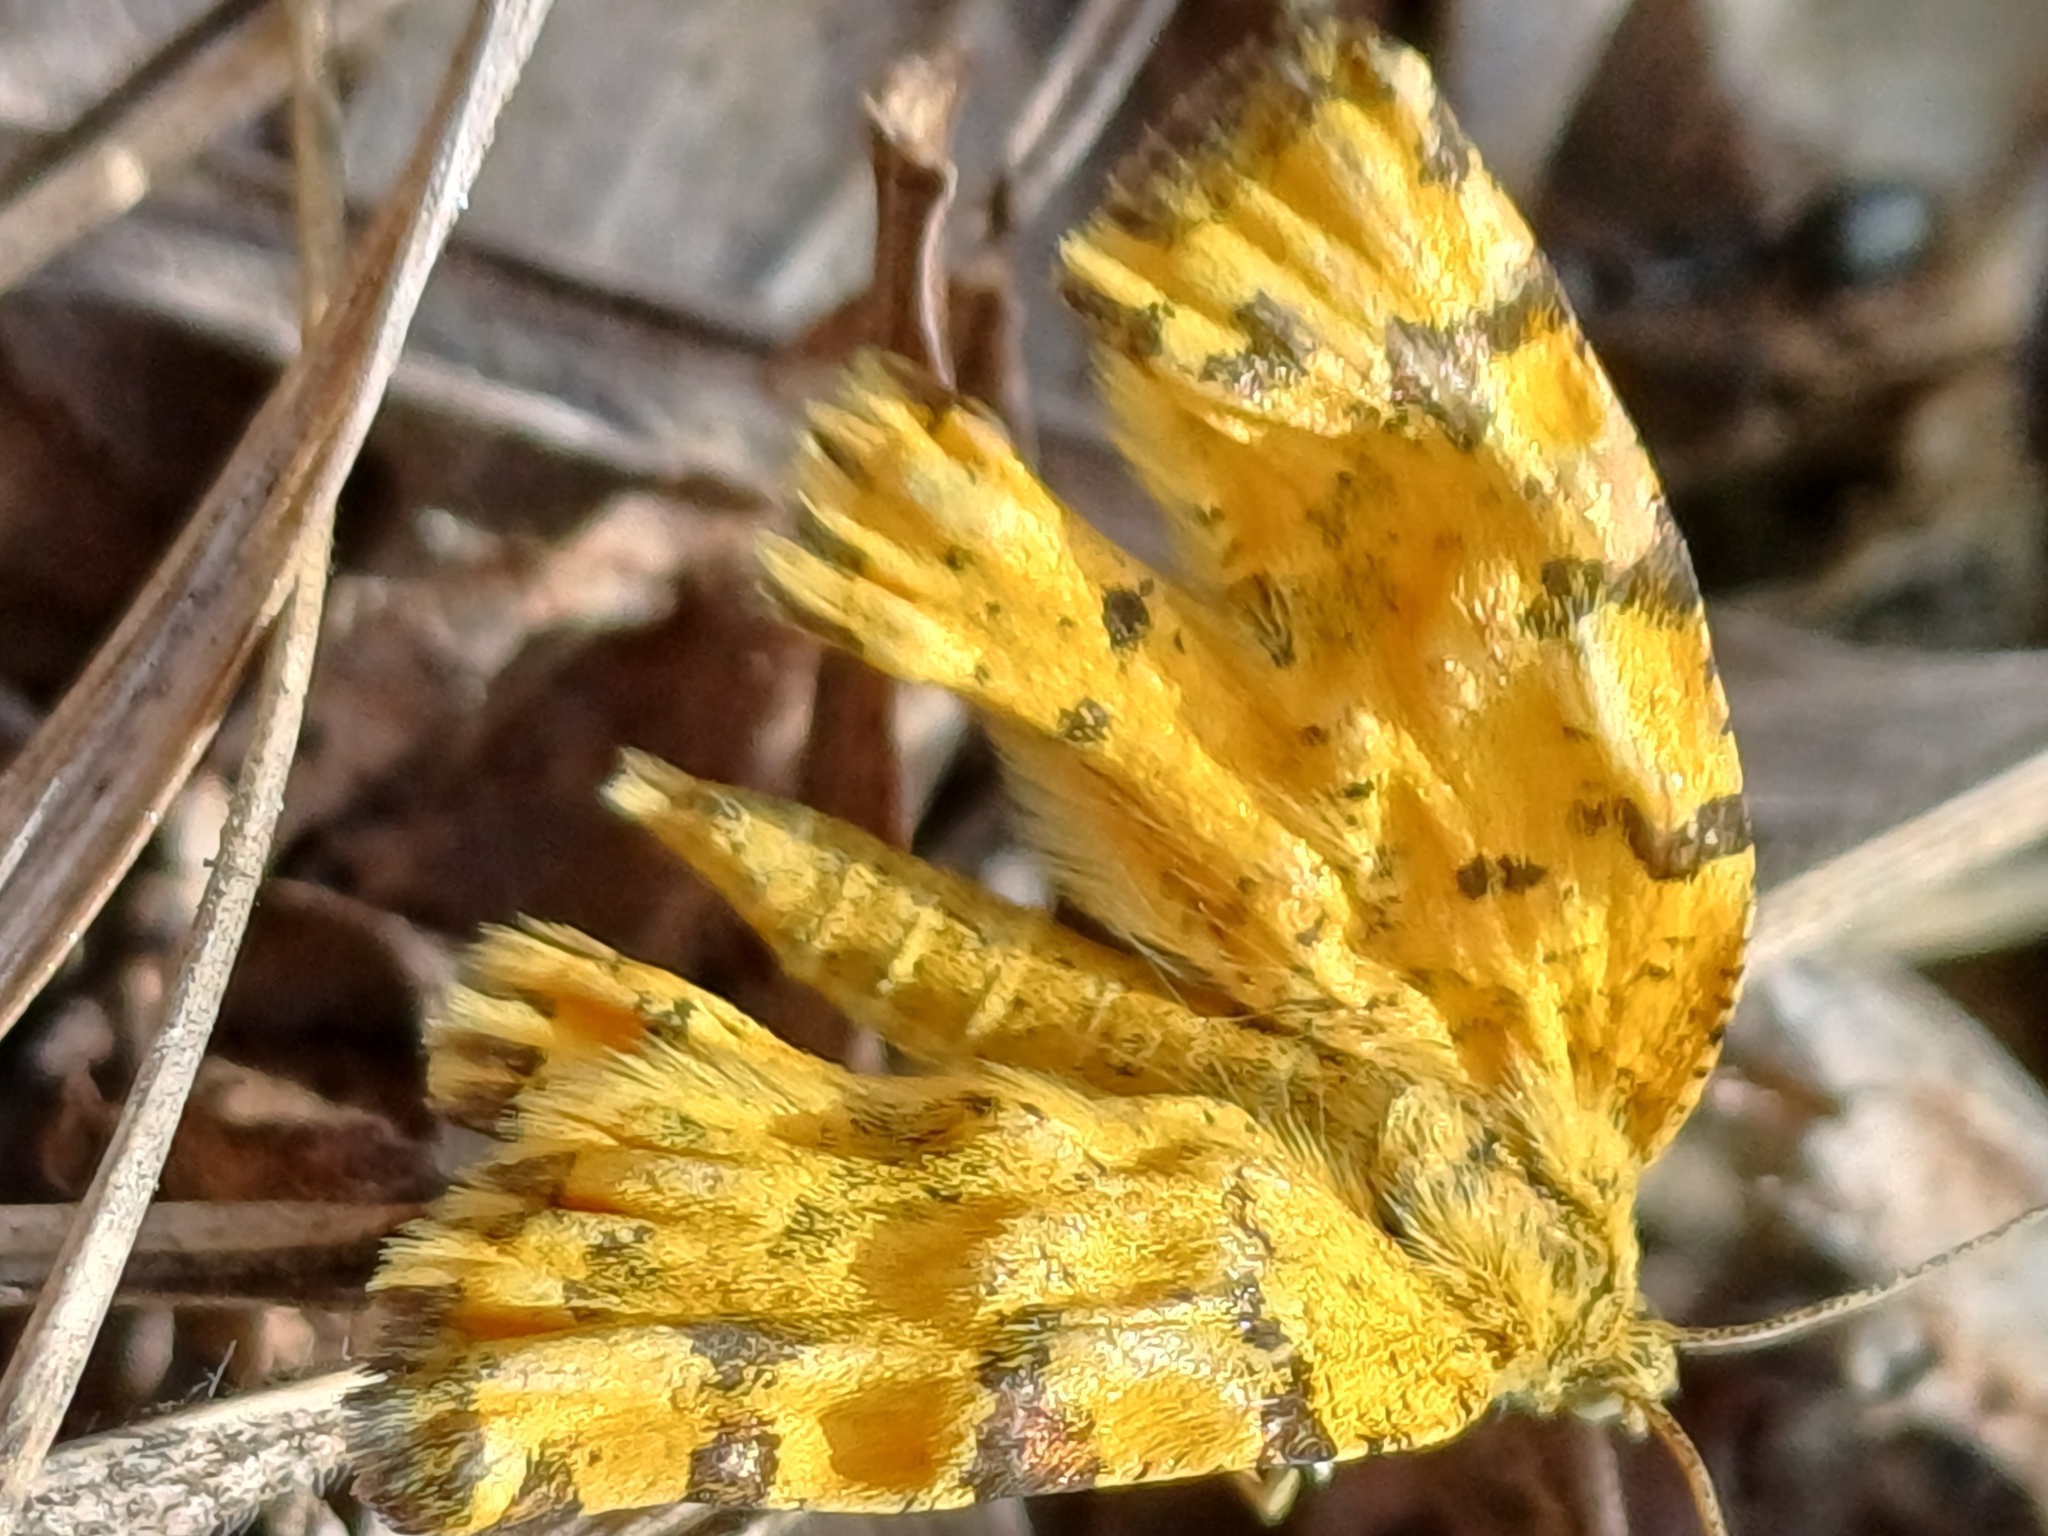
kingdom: Animalia
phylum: Arthropoda
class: Insecta
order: Lepidoptera
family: Geometridae
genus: Pseudopanthera
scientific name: Pseudopanthera macularia
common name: Speckled yellow
